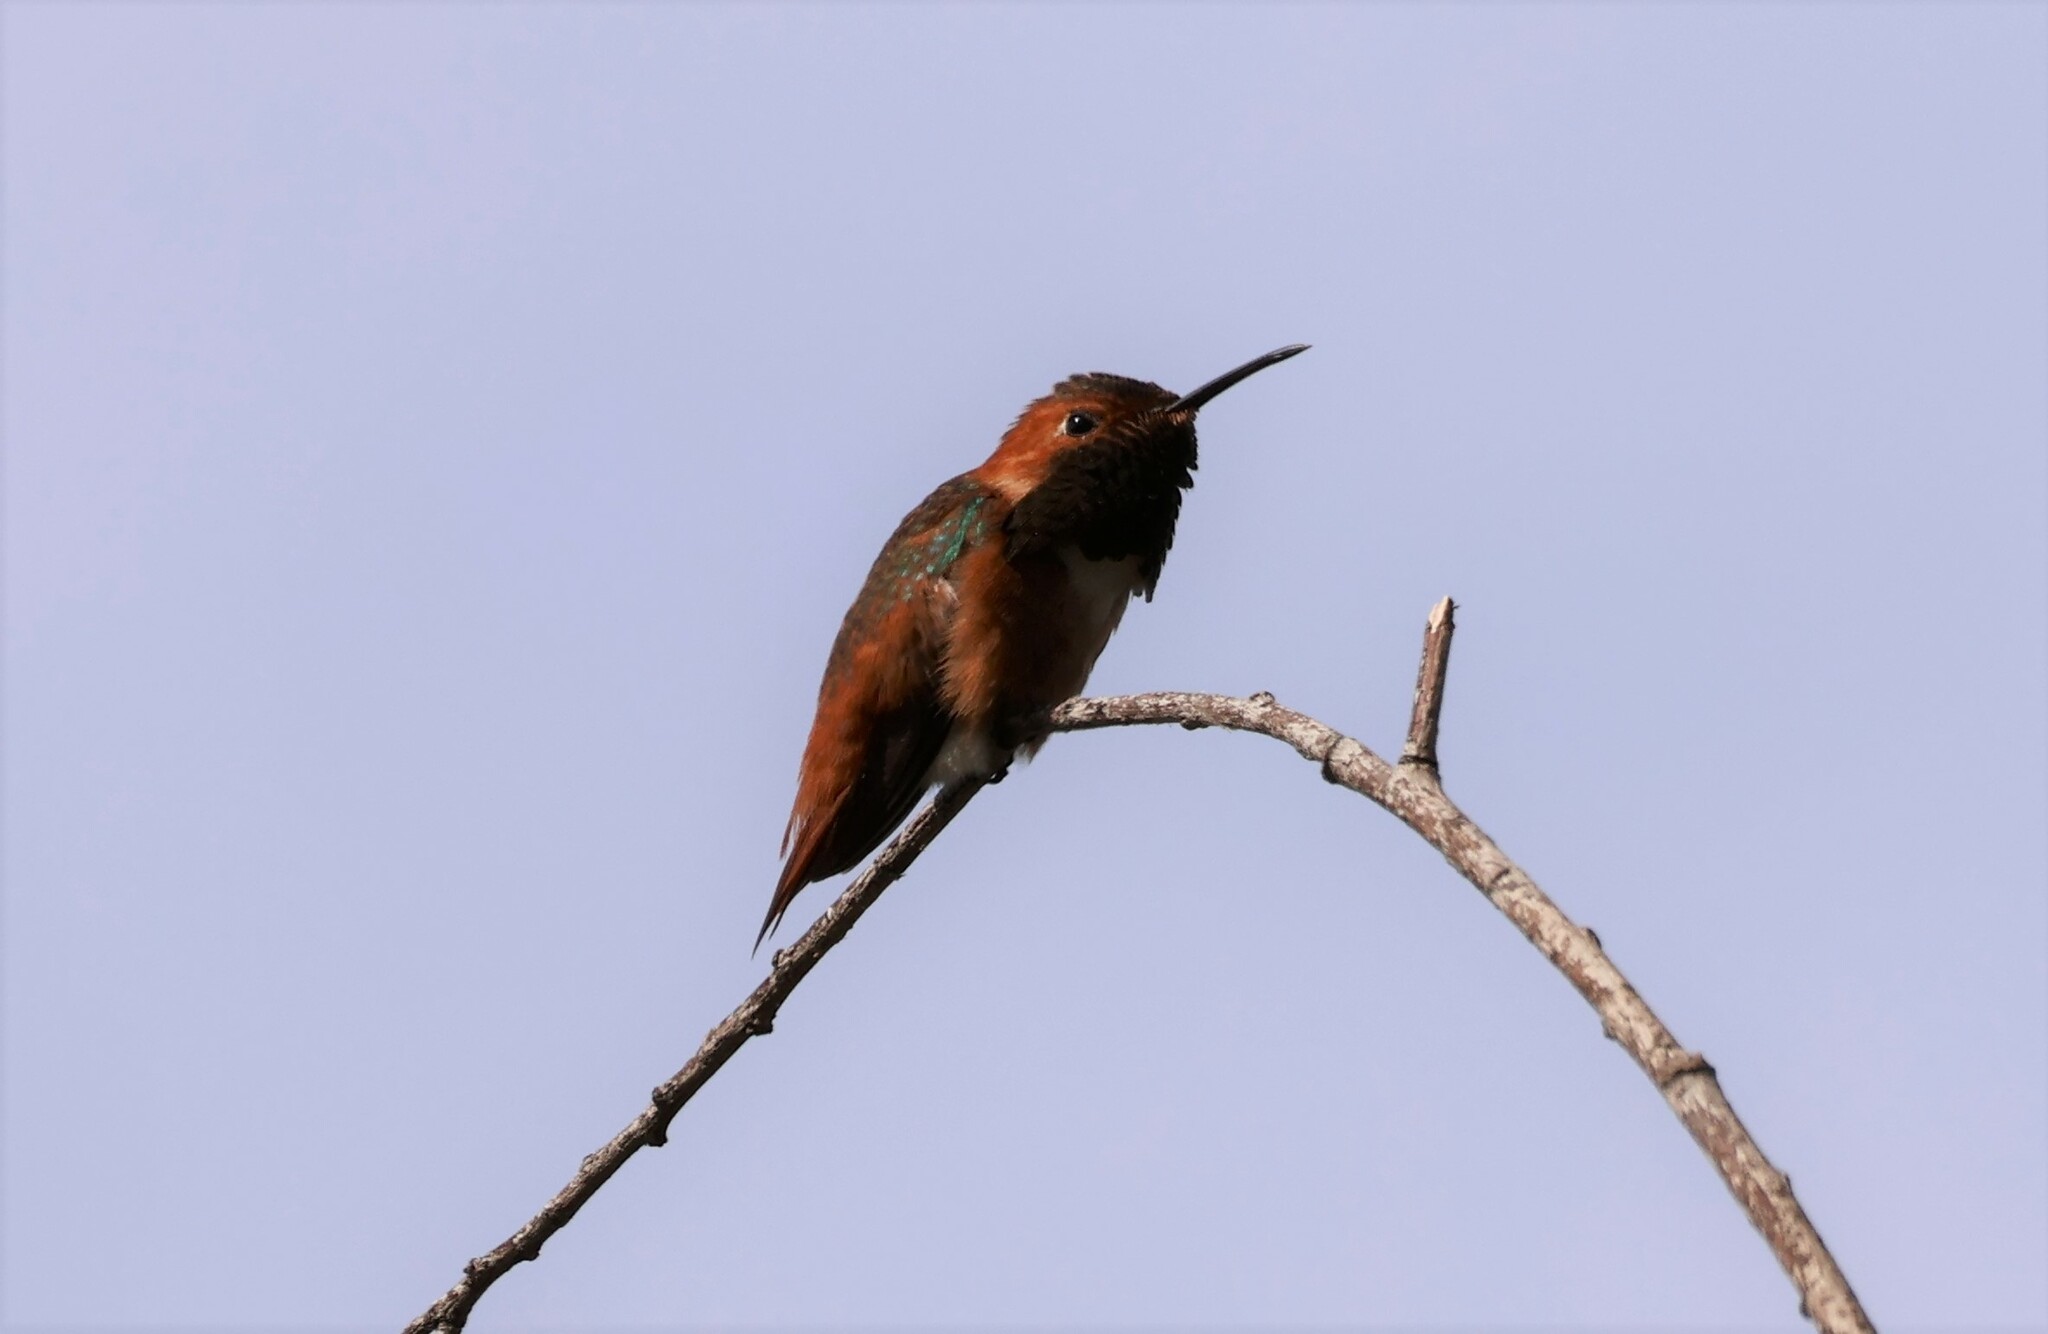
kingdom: Animalia
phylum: Chordata
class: Aves
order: Apodiformes
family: Trochilidae
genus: Selasphorus
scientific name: Selasphorus sasin
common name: Allen's hummingbird
